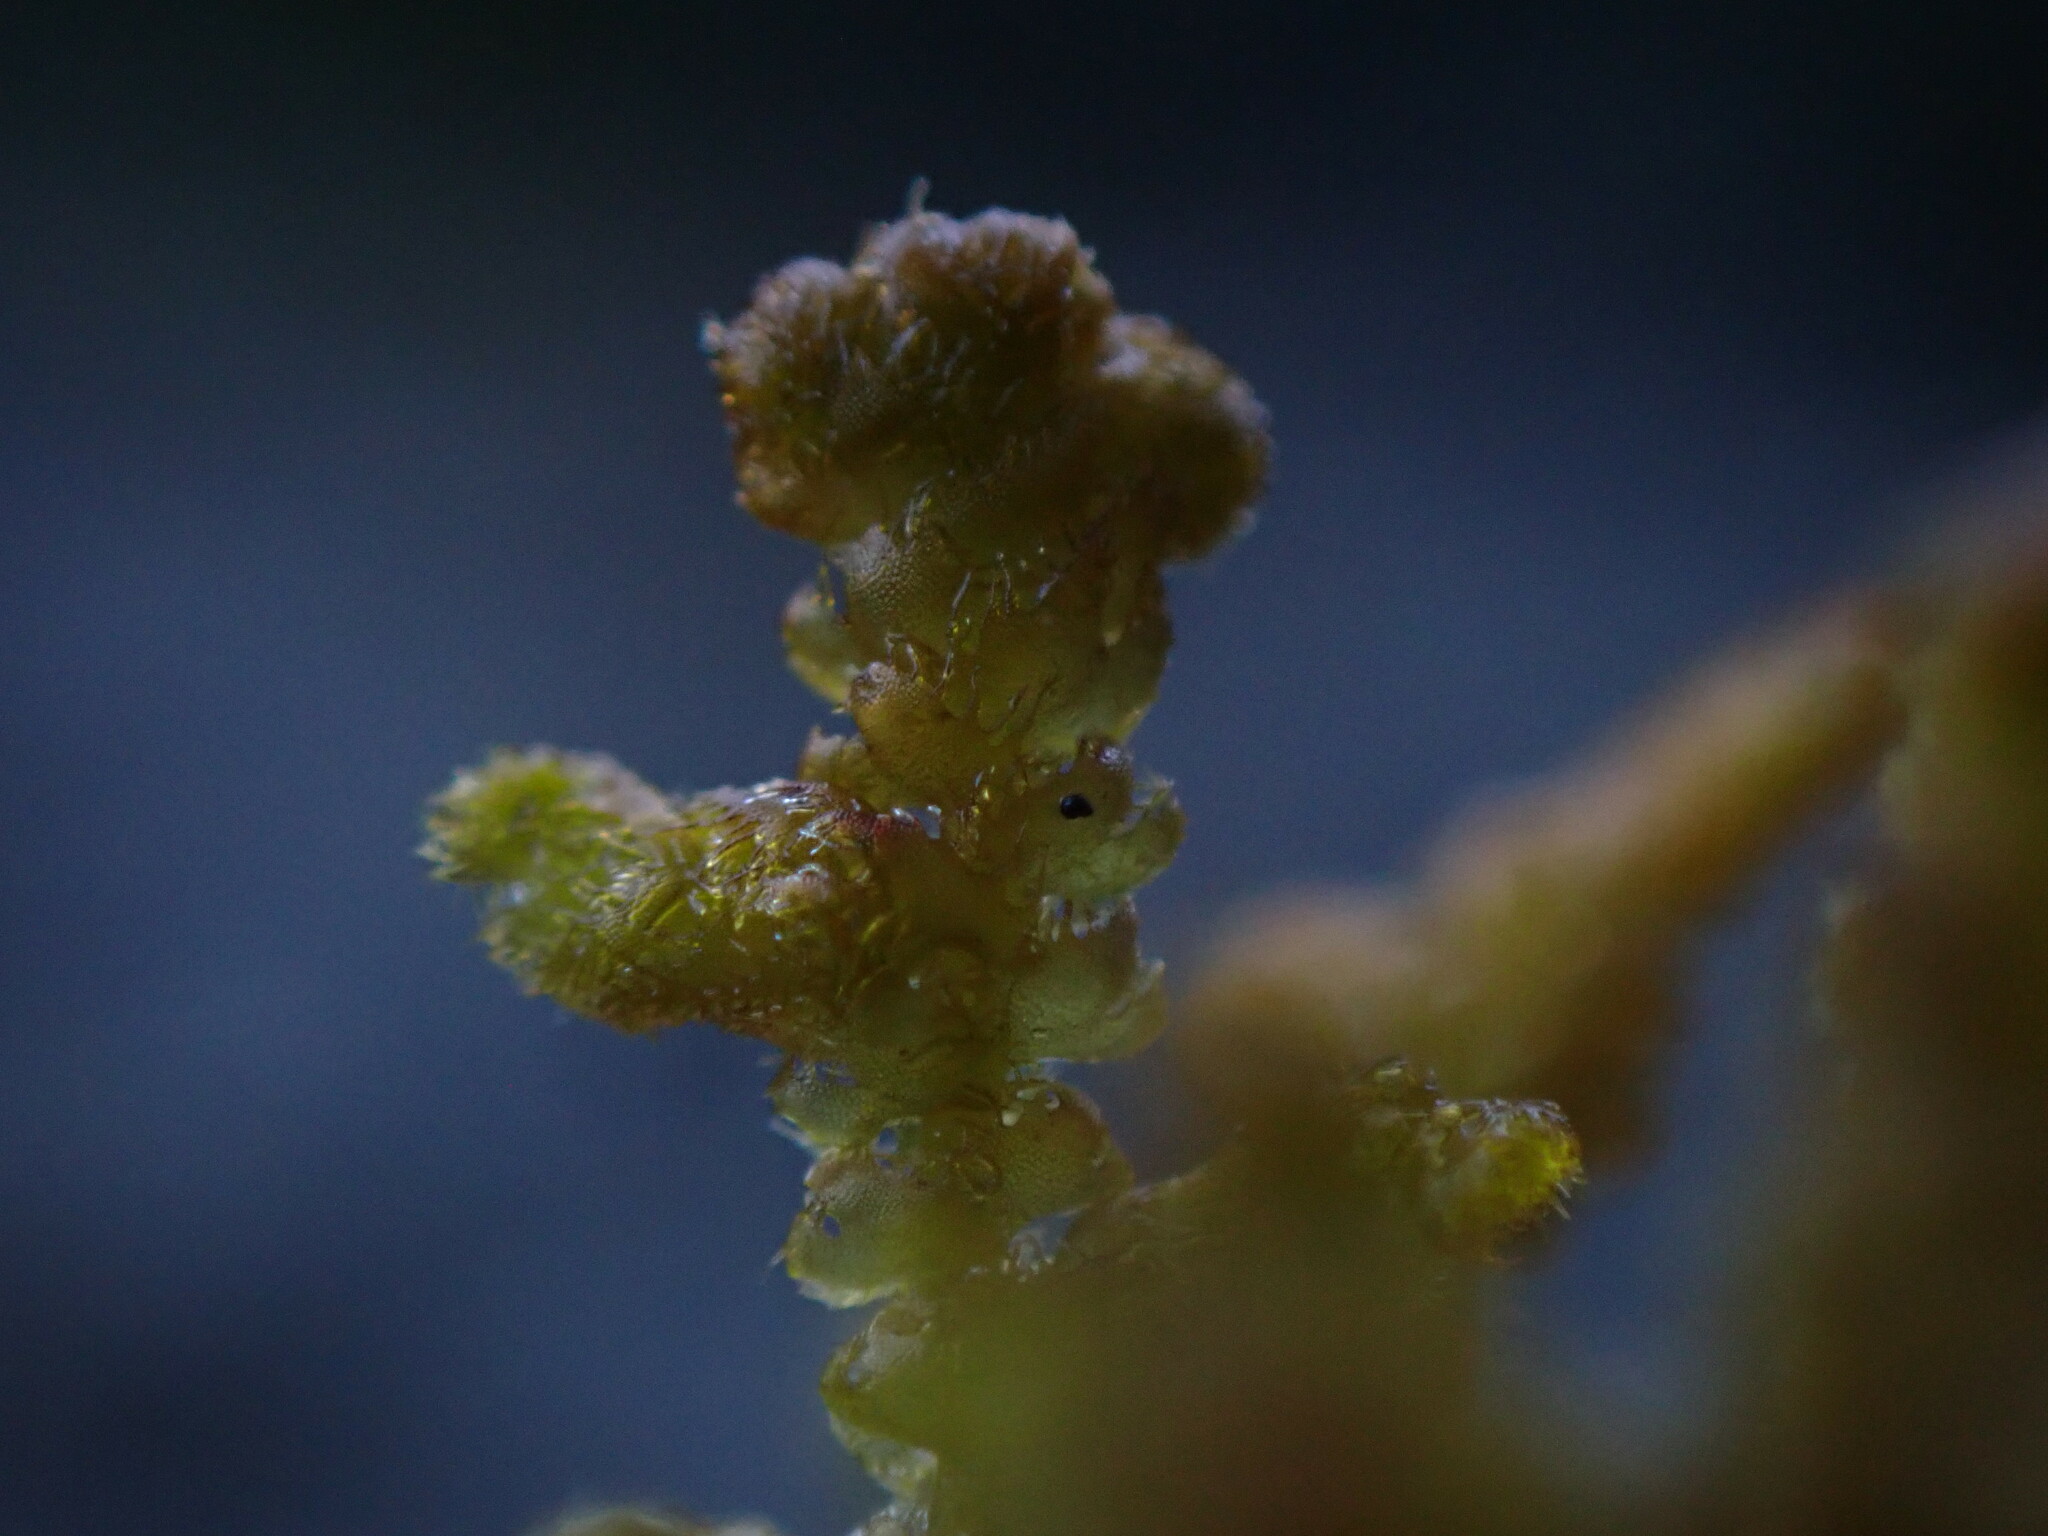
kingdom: Plantae
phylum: Marchantiophyta
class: Jungermanniopsida
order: Ptilidiales
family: Ptilidiaceae
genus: Ptilidium
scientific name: Ptilidium ciliare
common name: Ciliate fringewort
